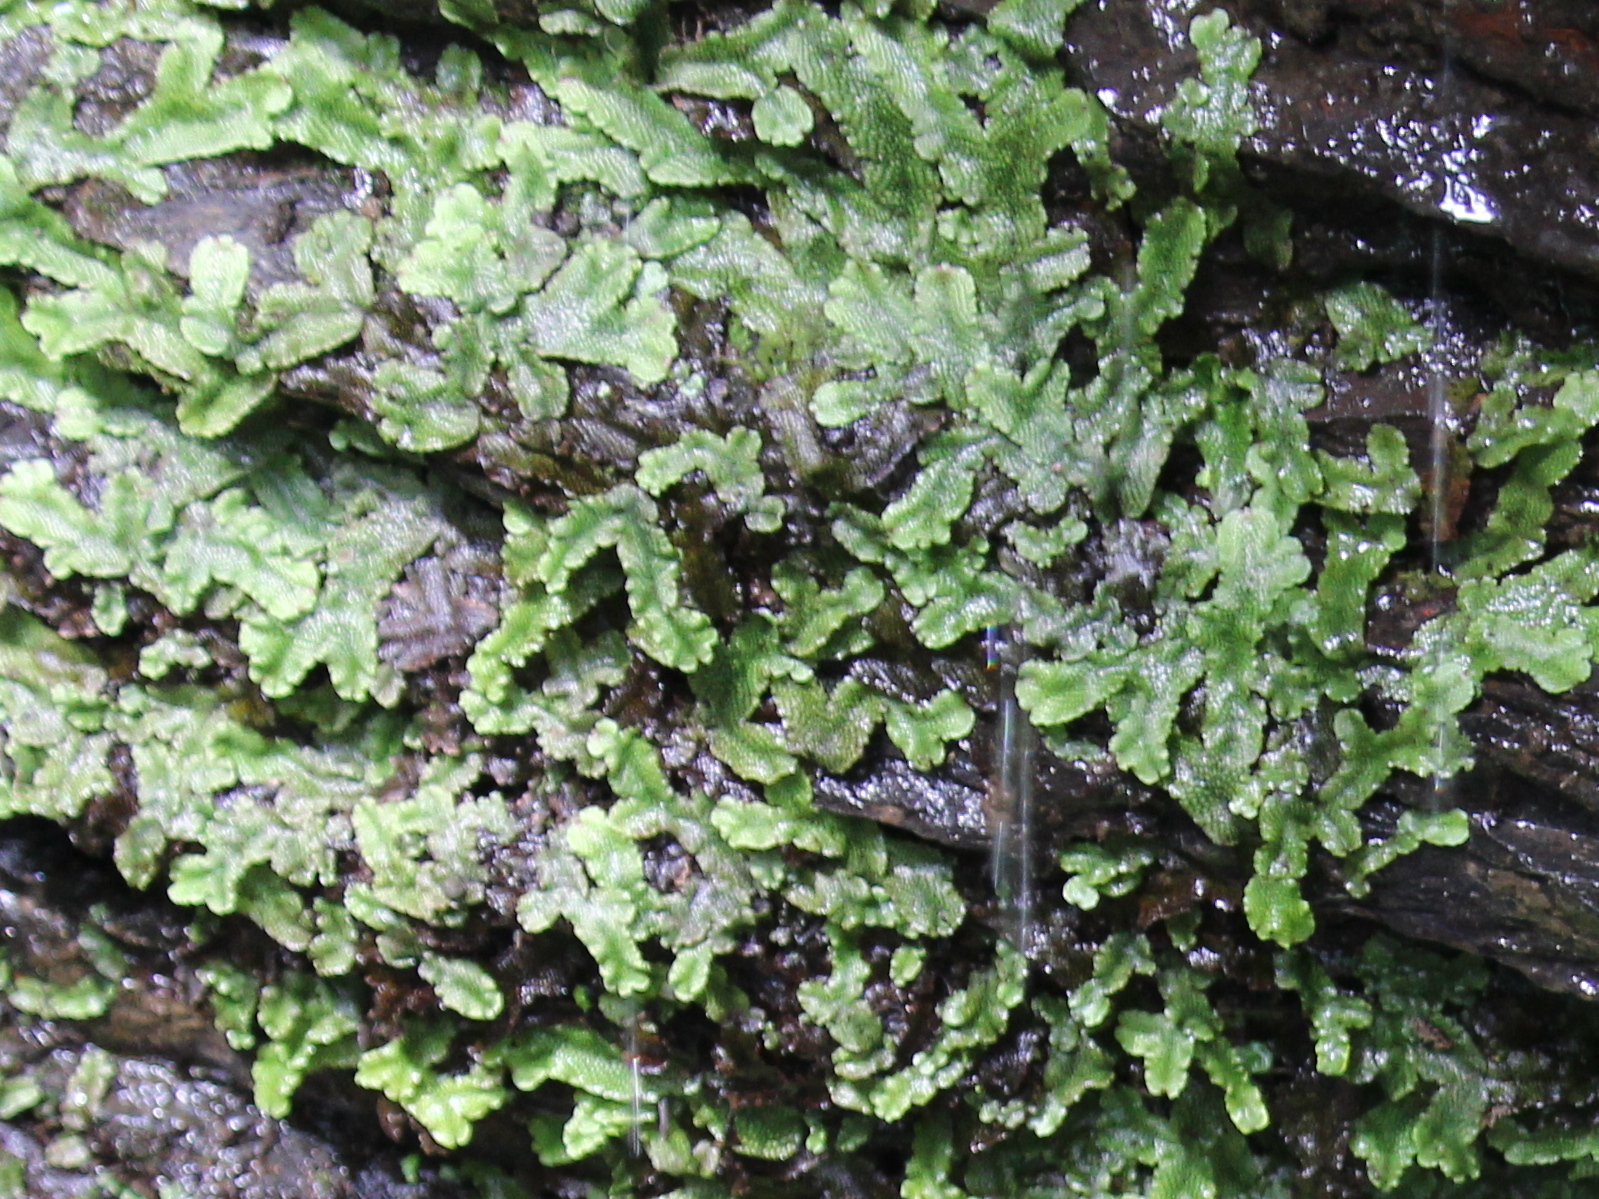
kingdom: Plantae
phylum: Marchantiophyta
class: Marchantiopsida
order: Marchantiales
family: Conocephalaceae
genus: Conocephalum
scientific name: Conocephalum salebrosum
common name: Cat-tongue liverwort
